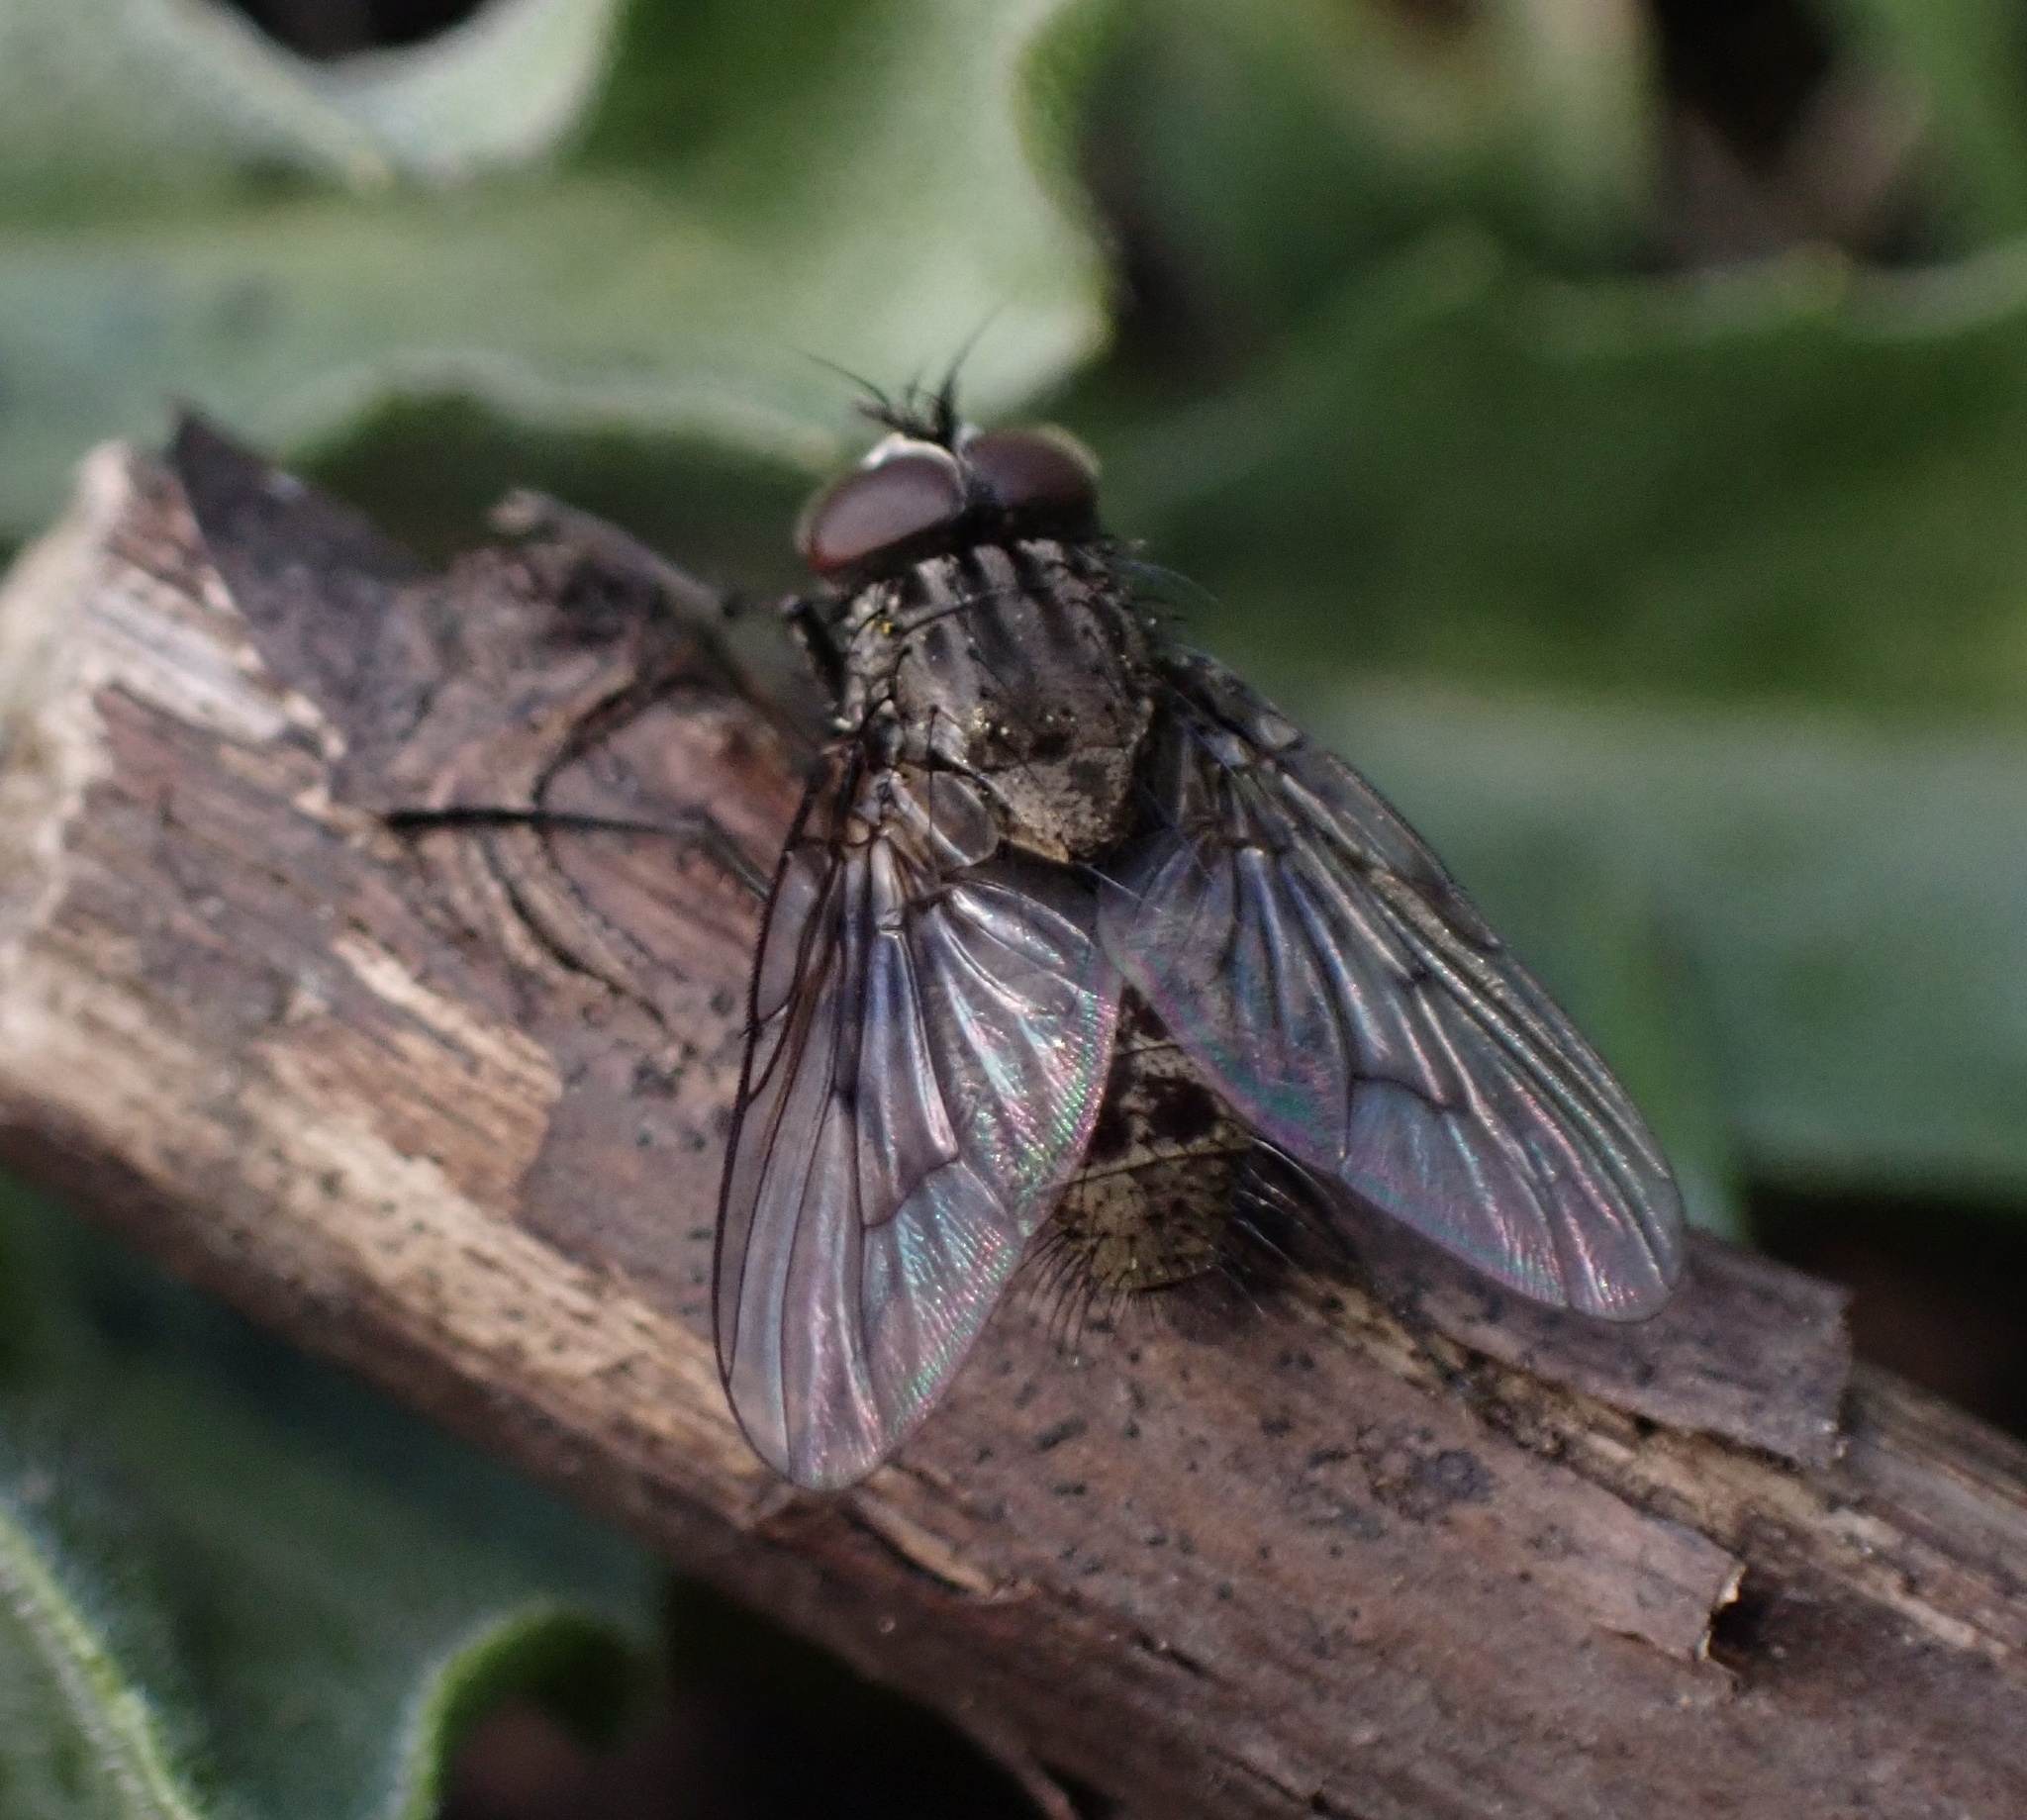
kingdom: Animalia
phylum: Arthropoda
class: Insecta
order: Diptera
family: Muscidae
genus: Helina
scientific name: Helina evecta
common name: Muscid fly
